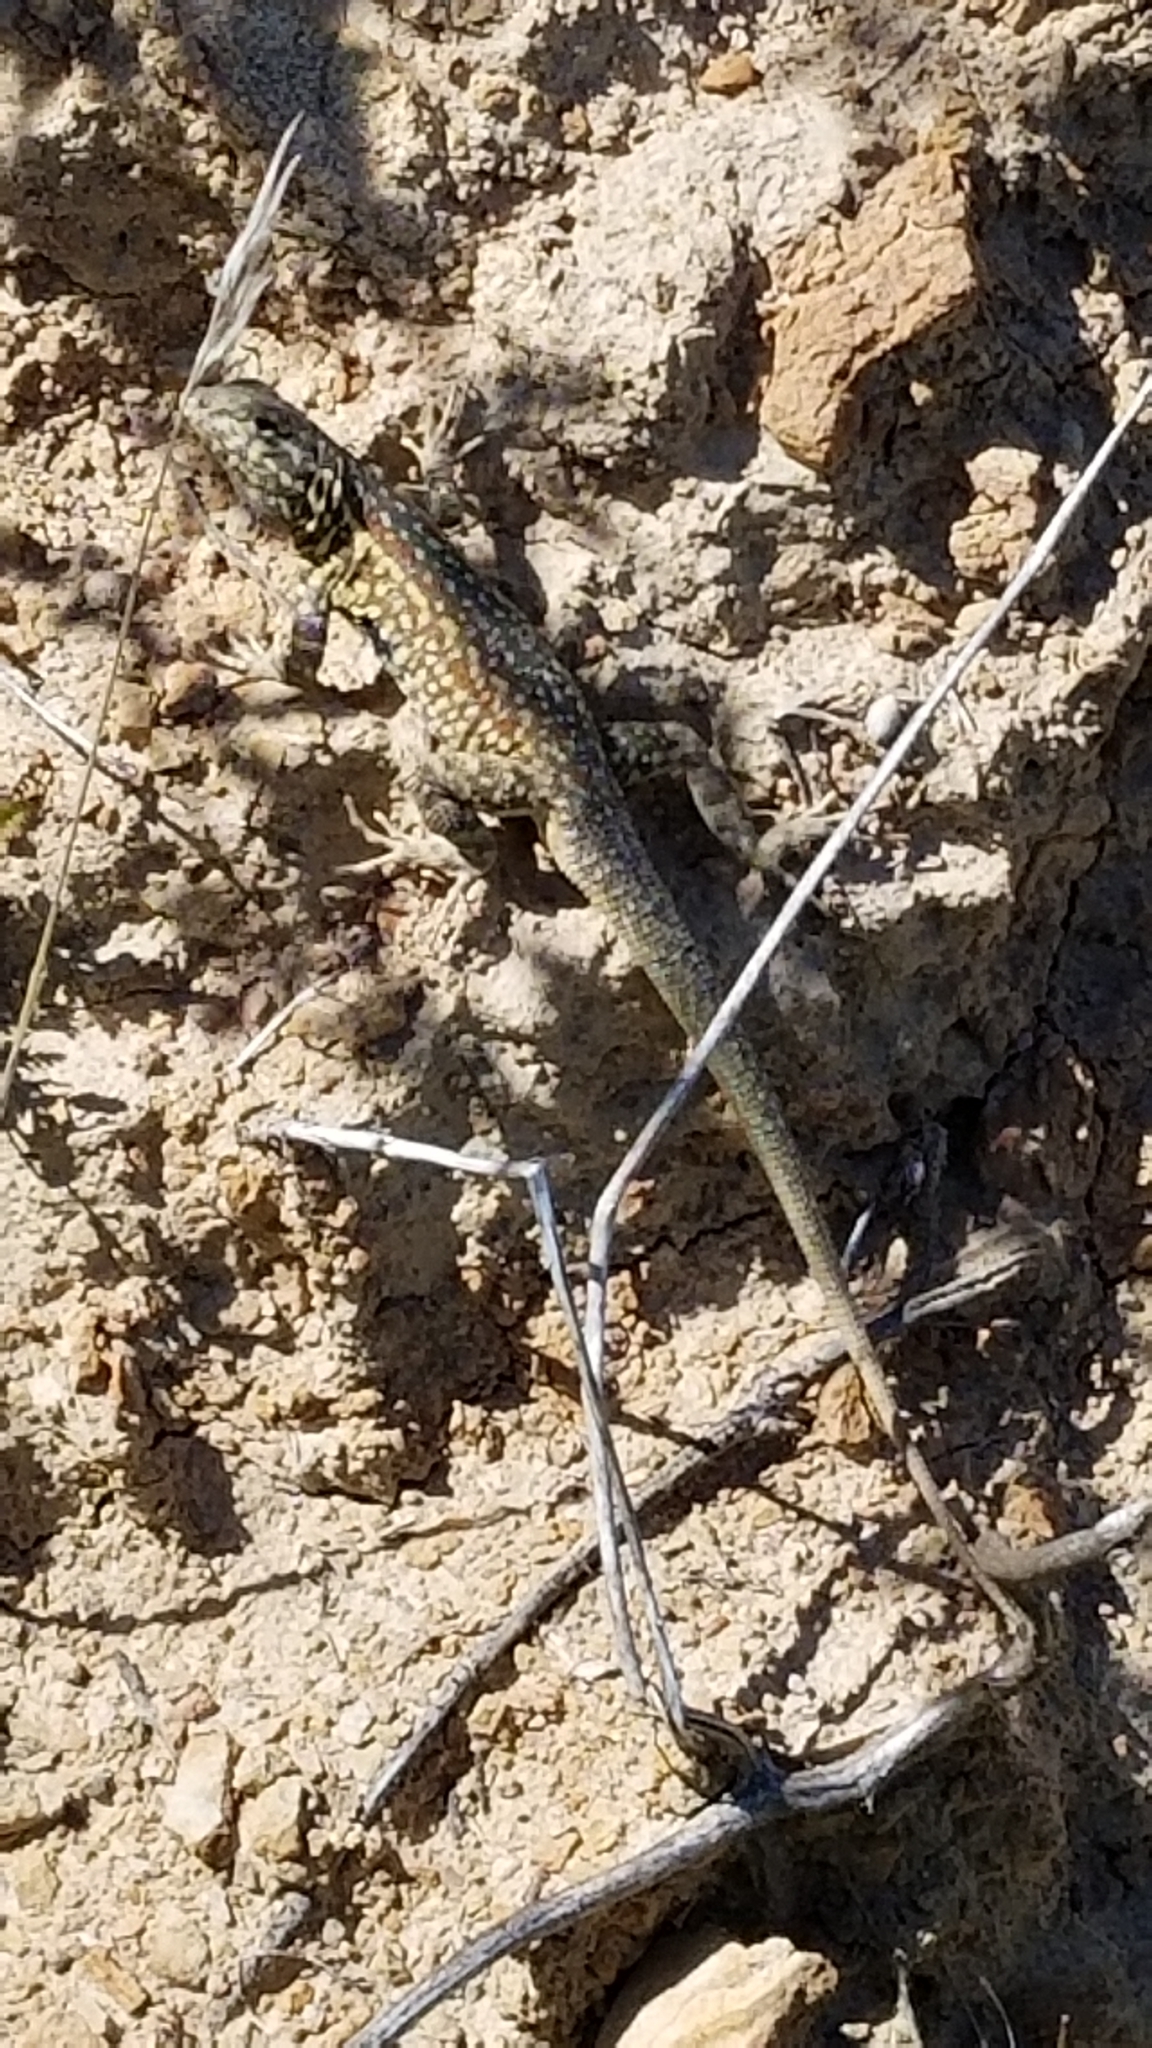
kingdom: Animalia
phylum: Chordata
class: Squamata
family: Phrynosomatidae
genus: Uta
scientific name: Uta stansburiana
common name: Side-blotched lizard
